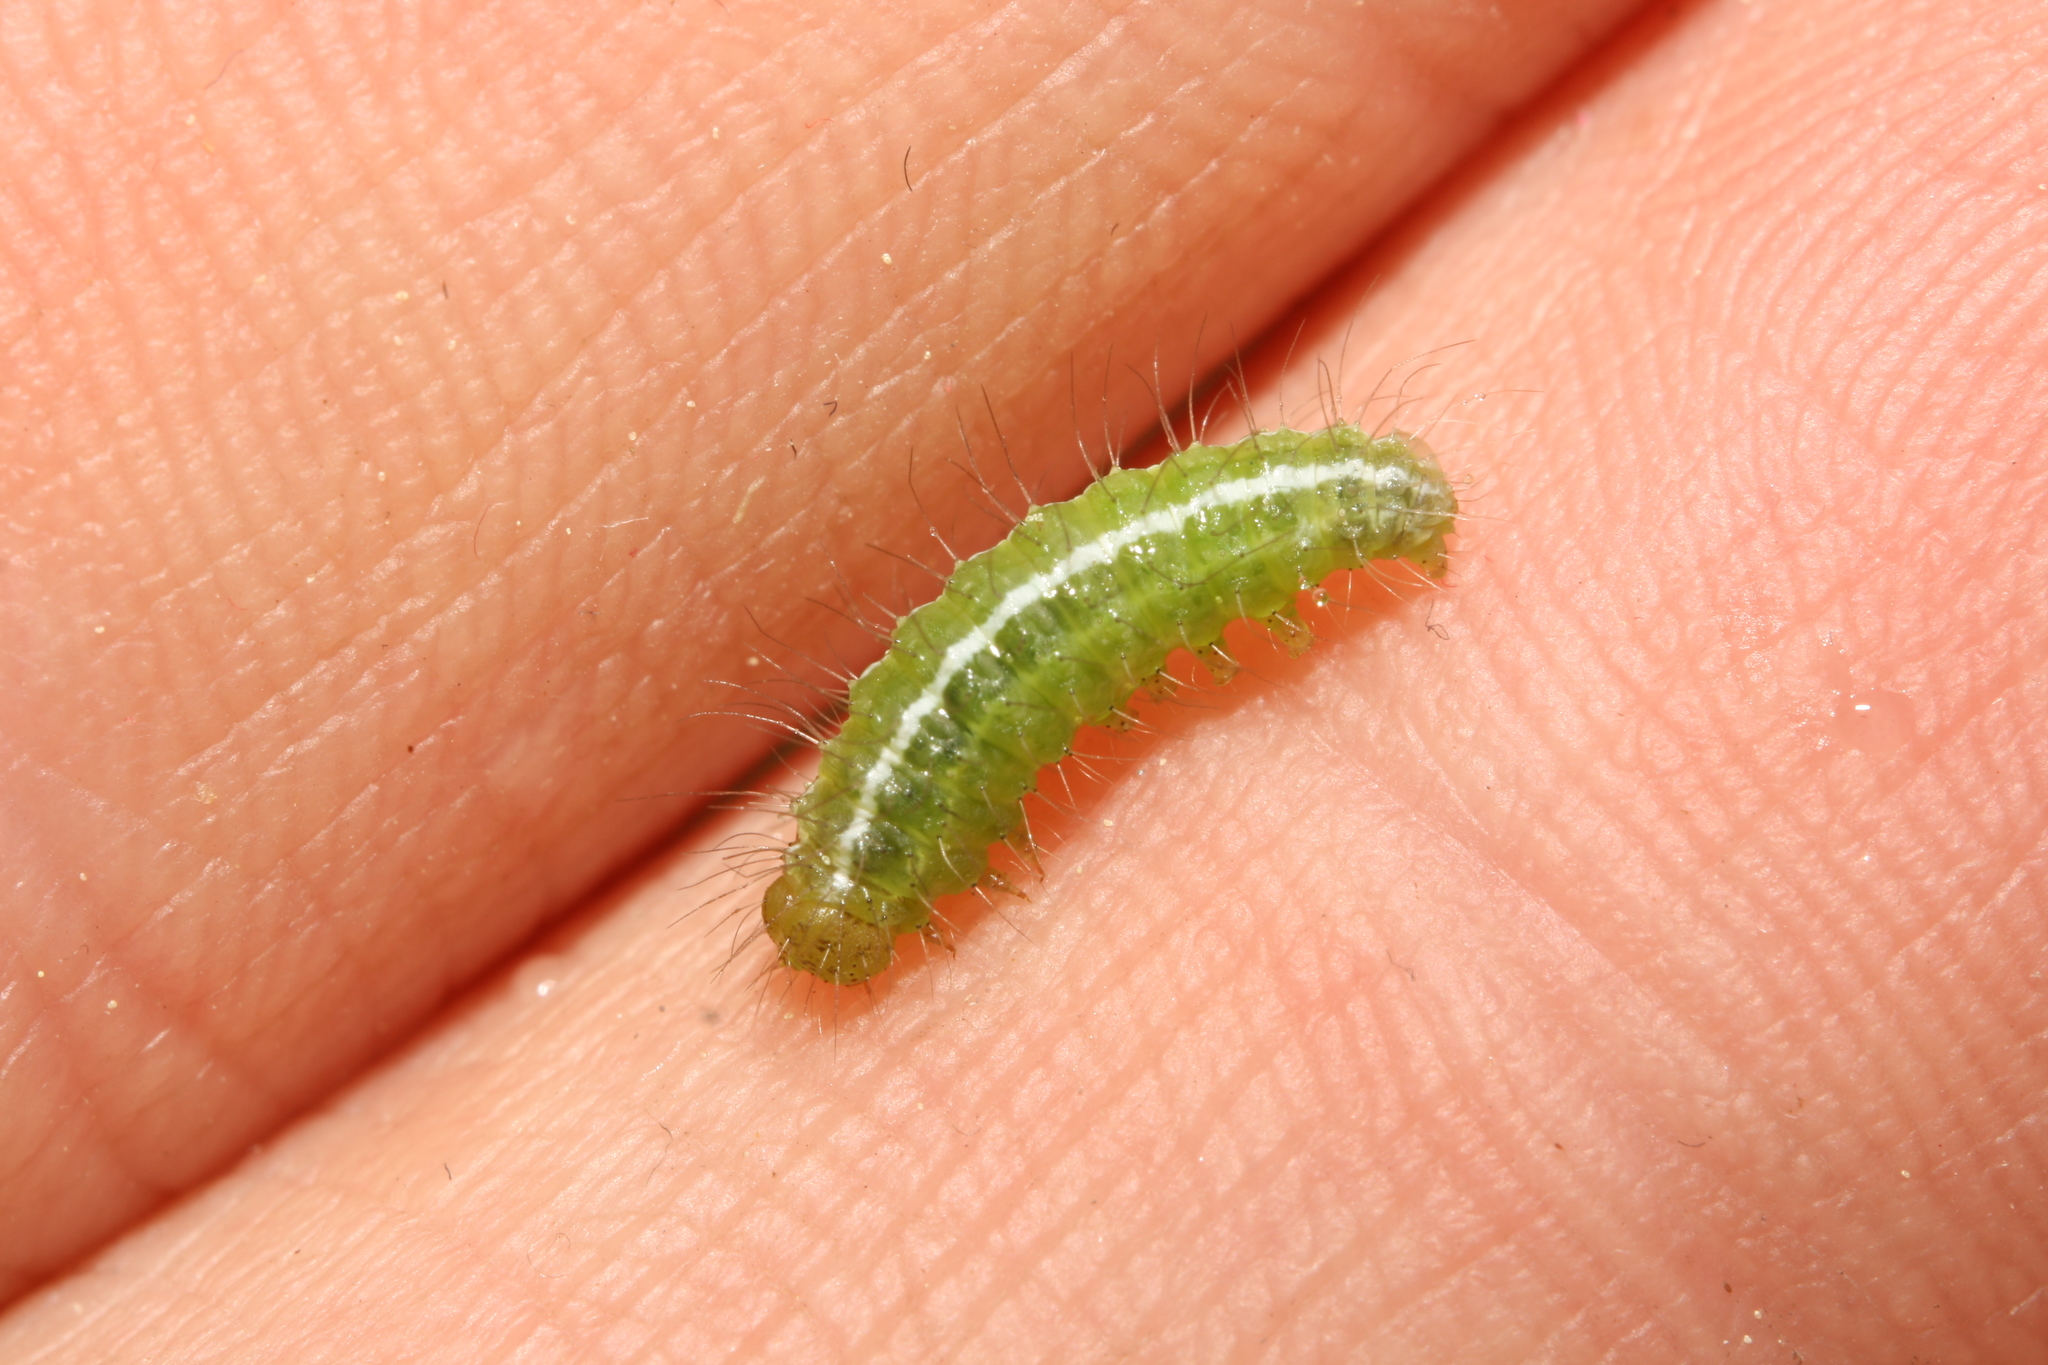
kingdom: Animalia
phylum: Arthropoda
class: Insecta
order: Lepidoptera
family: Erebidae
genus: Rivula
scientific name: Rivula sericealis
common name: Straw dot
